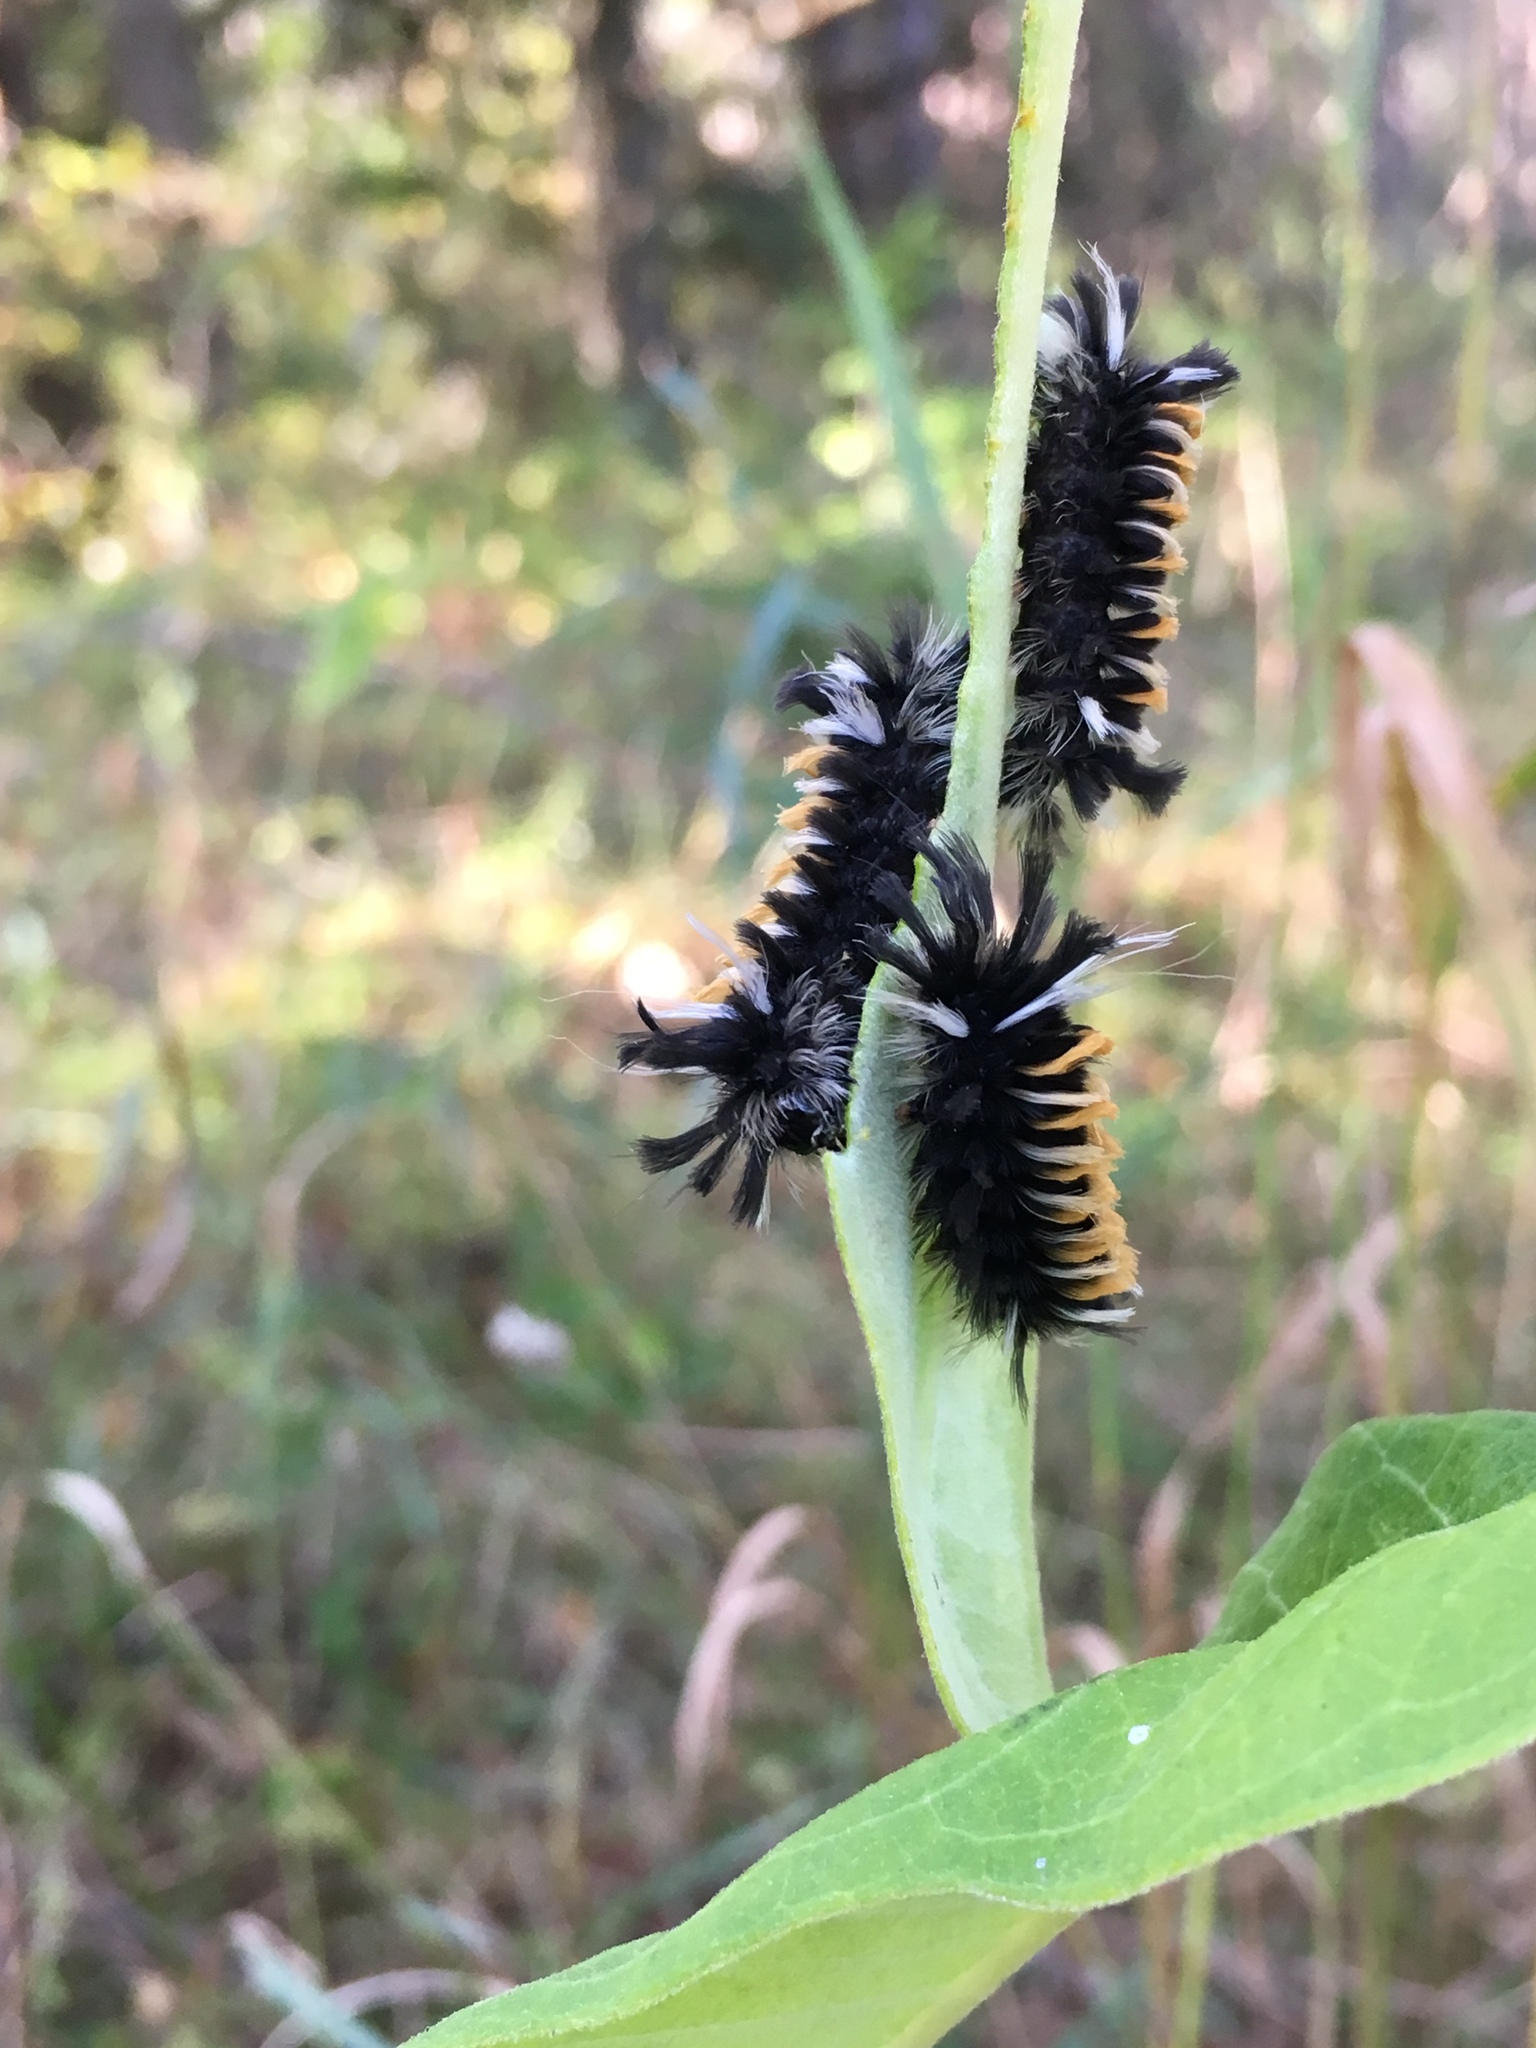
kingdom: Animalia
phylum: Arthropoda
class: Insecta
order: Lepidoptera
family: Erebidae
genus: Euchaetes
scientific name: Euchaetes egle
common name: Milkweed tussock moth
